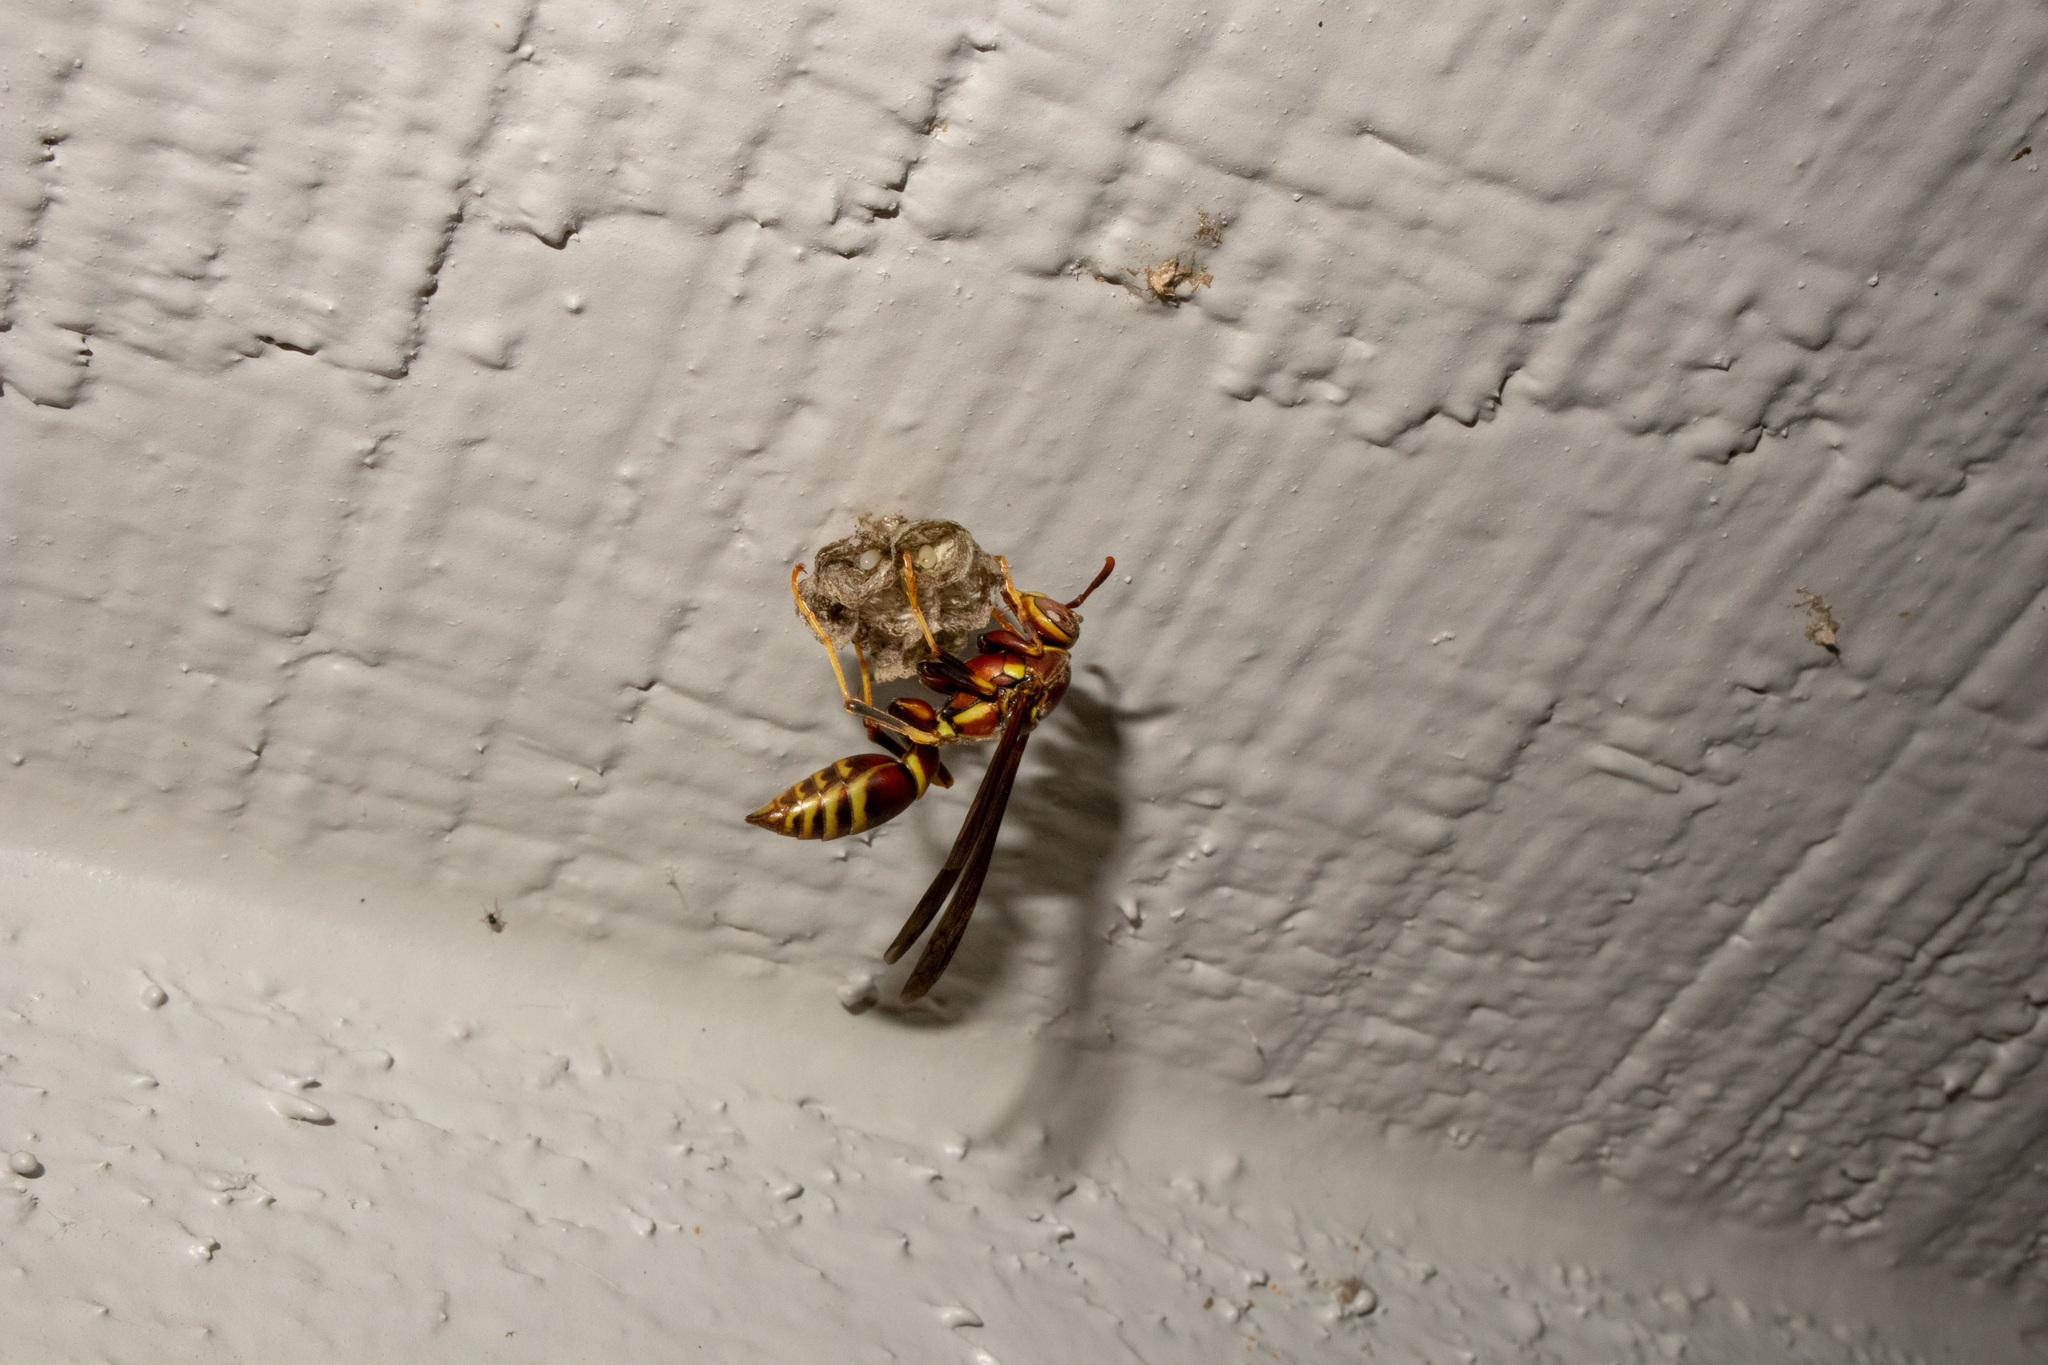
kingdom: Animalia
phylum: Arthropoda
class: Insecta
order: Hymenoptera
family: Eumenidae
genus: Polistes
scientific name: Polistes exclamans
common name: Paper wasp
